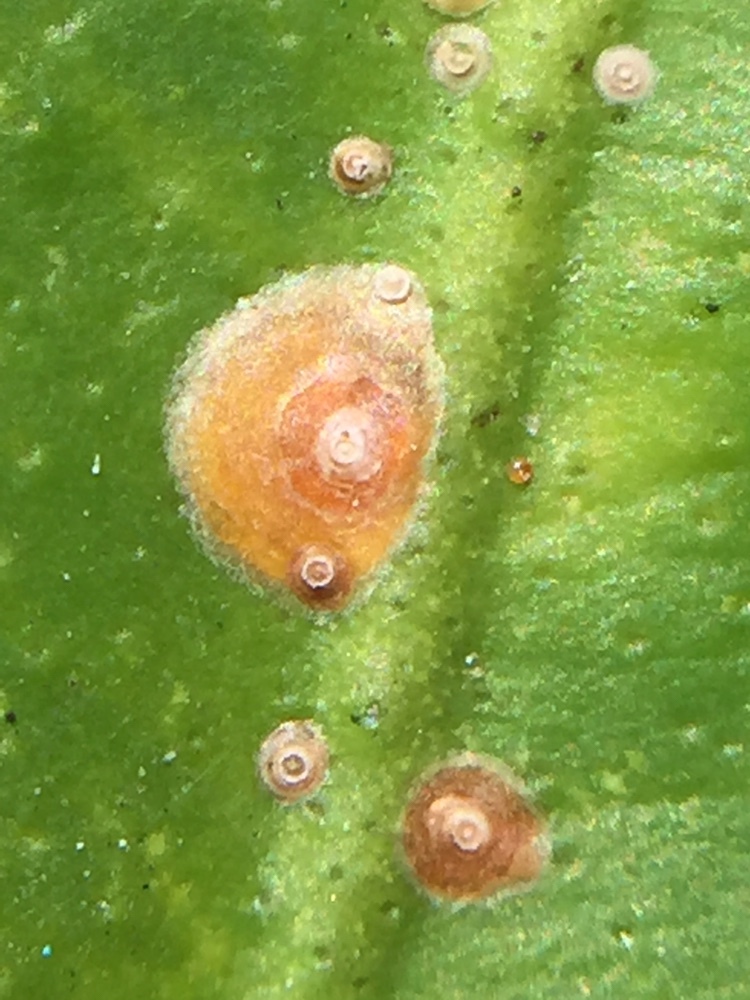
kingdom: Animalia
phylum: Arthropoda
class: Insecta
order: Hemiptera
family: Diaspididae
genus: Aonidiella
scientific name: Aonidiella aurantii
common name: California red scale
